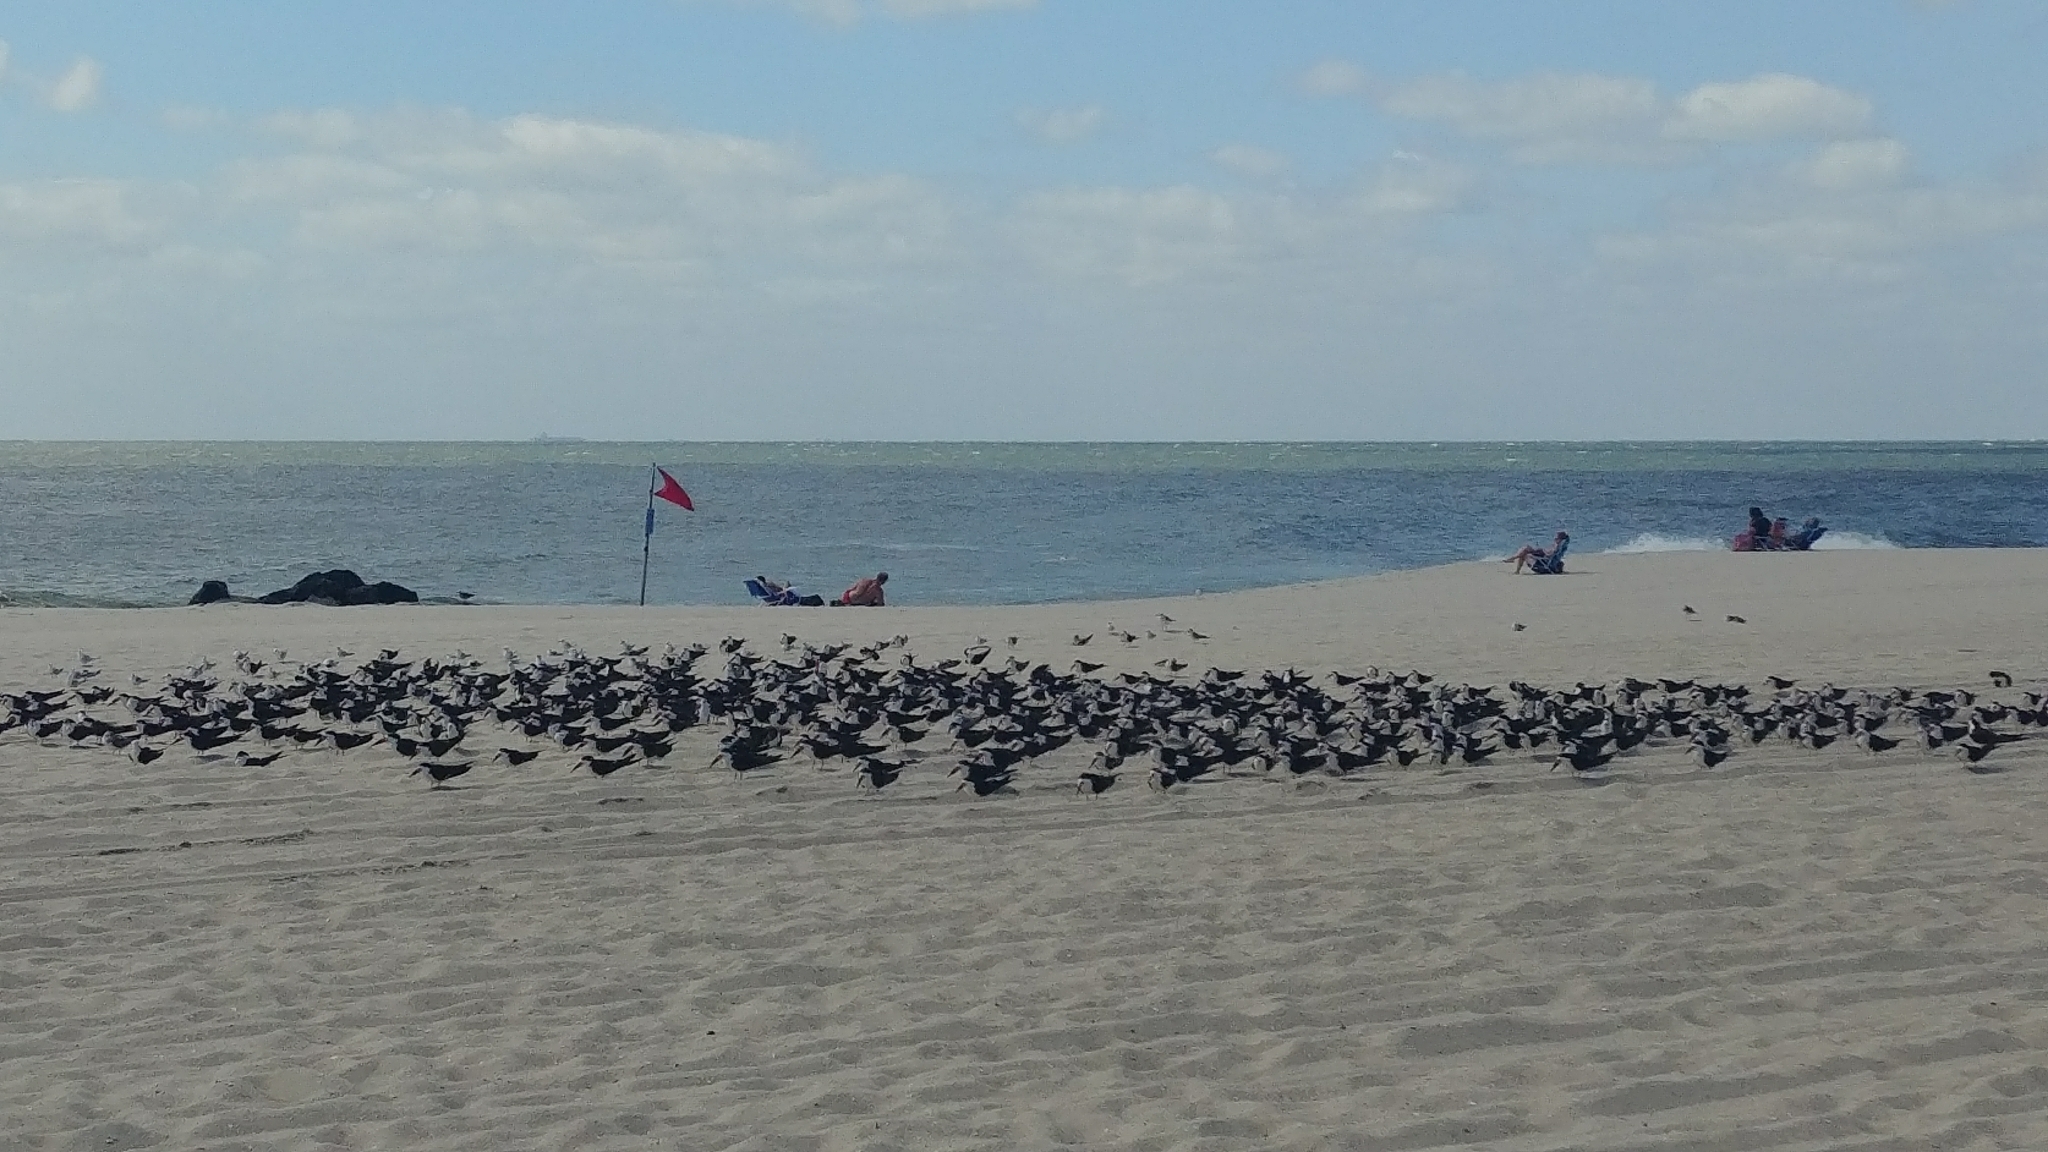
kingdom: Animalia
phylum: Chordata
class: Aves
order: Charadriiformes
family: Laridae
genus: Rynchops
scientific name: Rynchops niger
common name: Black skimmer
